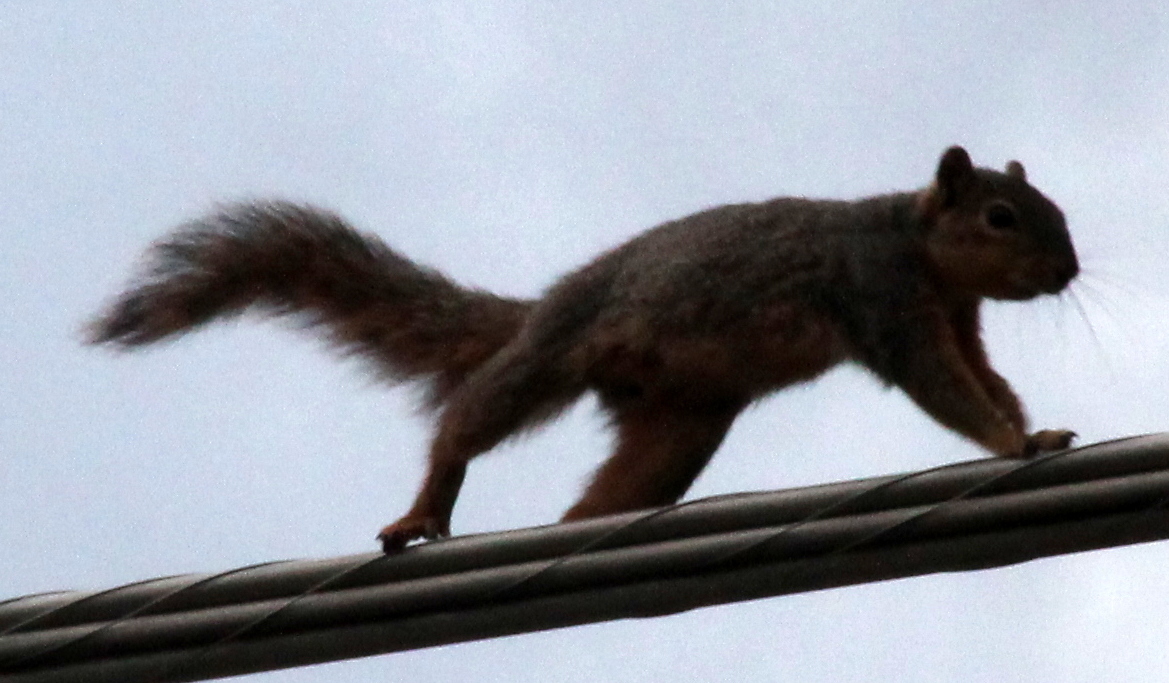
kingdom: Animalia
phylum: Chordata
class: Mammalia
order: Rodentia
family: Sciuridae
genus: Sciurus
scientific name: Sciurus niger
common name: Fox squirrel
